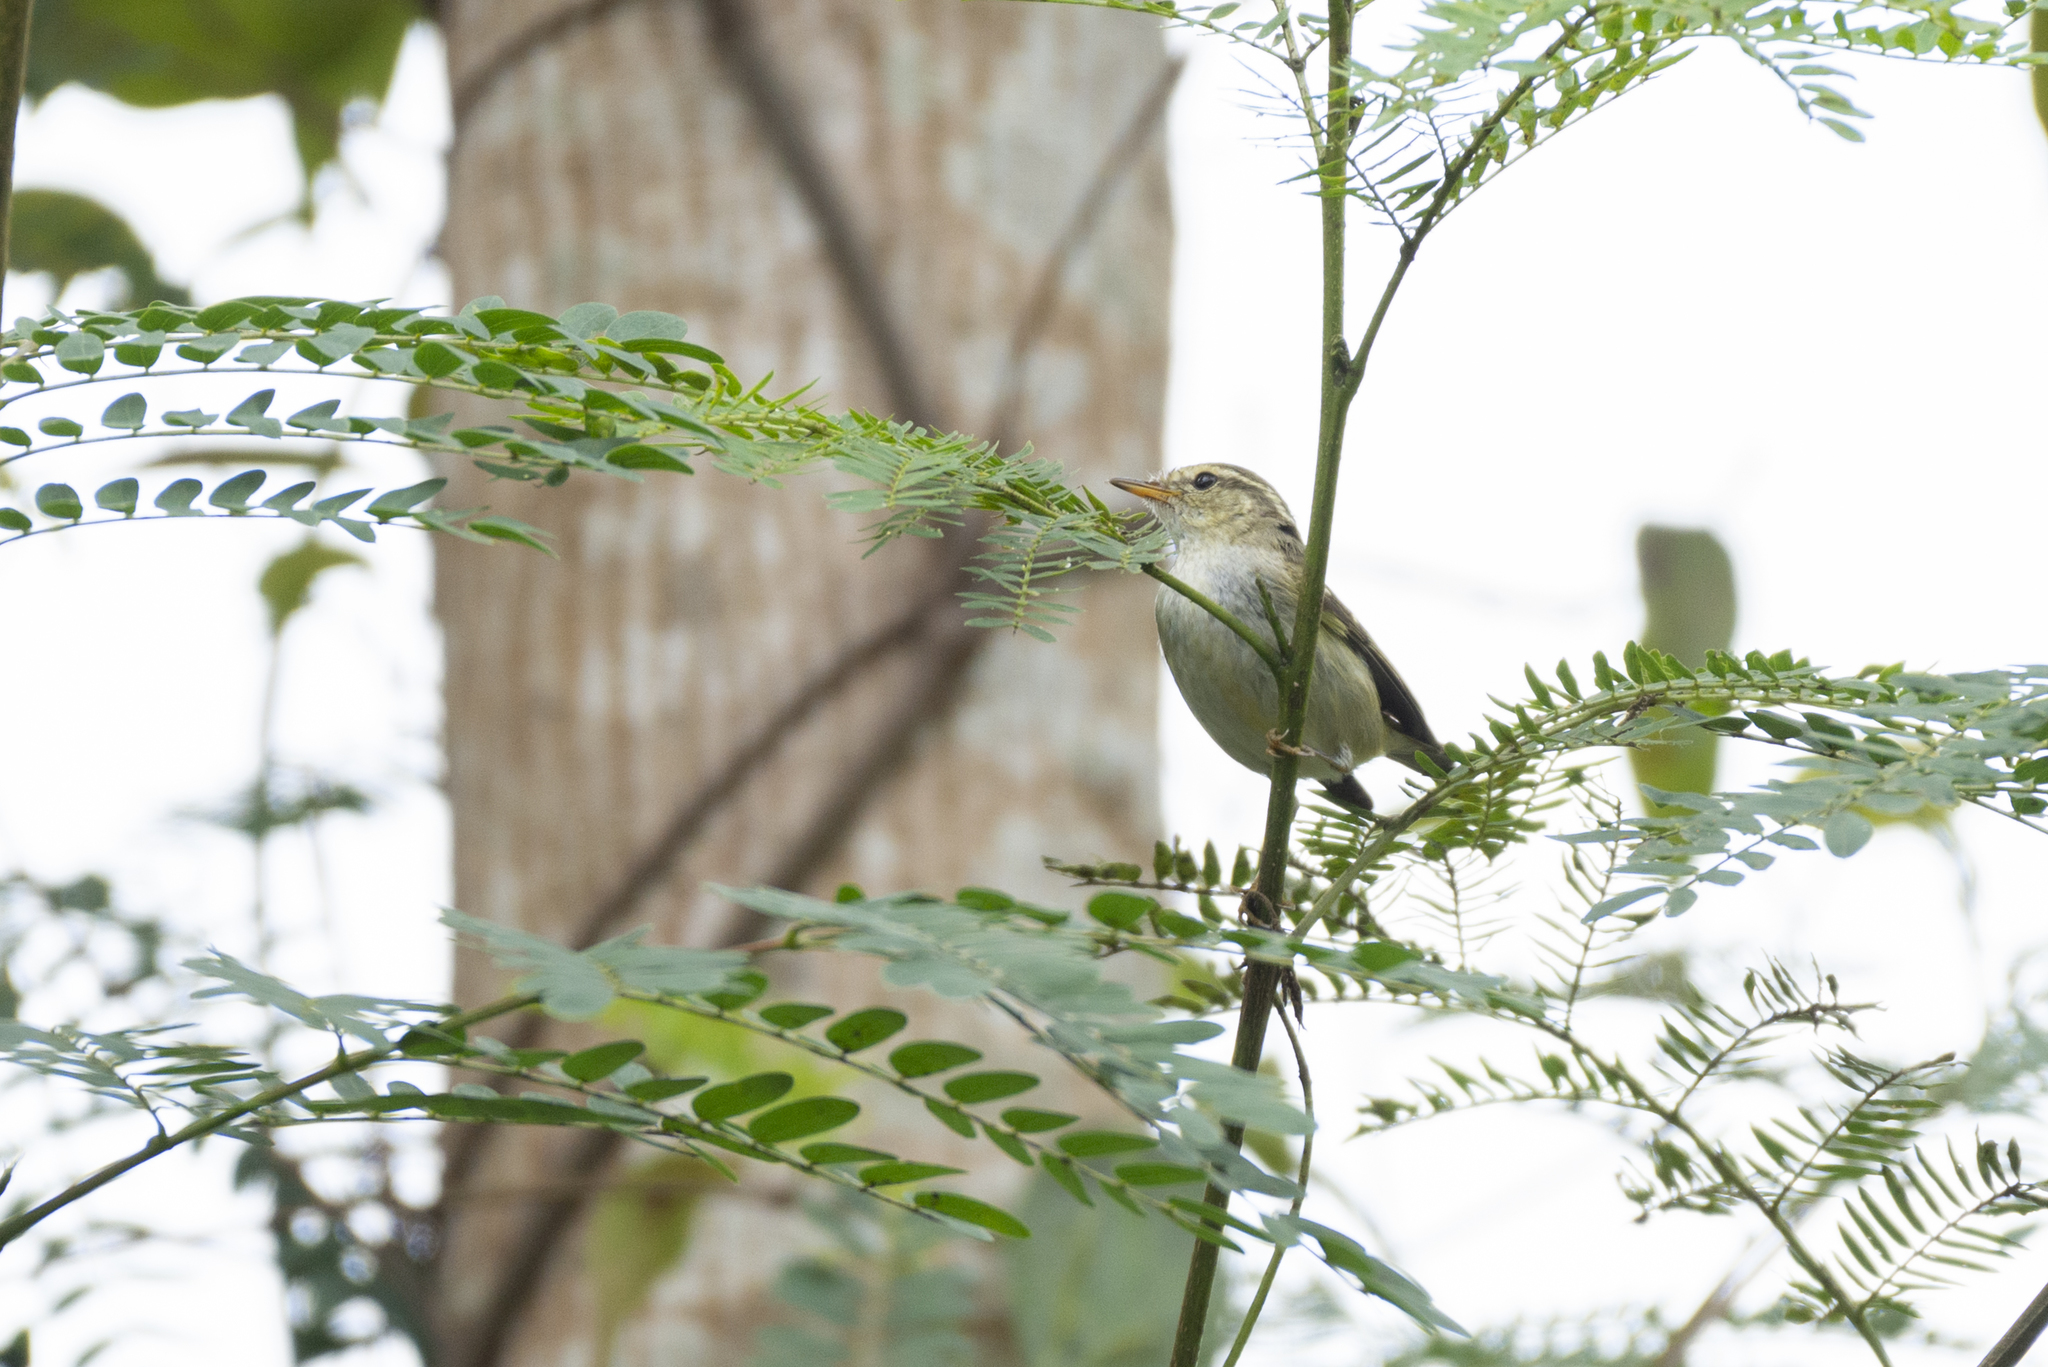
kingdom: Animalia
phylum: Chordata
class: Aves
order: Passeriformes
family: Phylloscopidae
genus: Phylloscopus
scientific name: Phylloscopus inornatus
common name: Yellow-browed warbler
